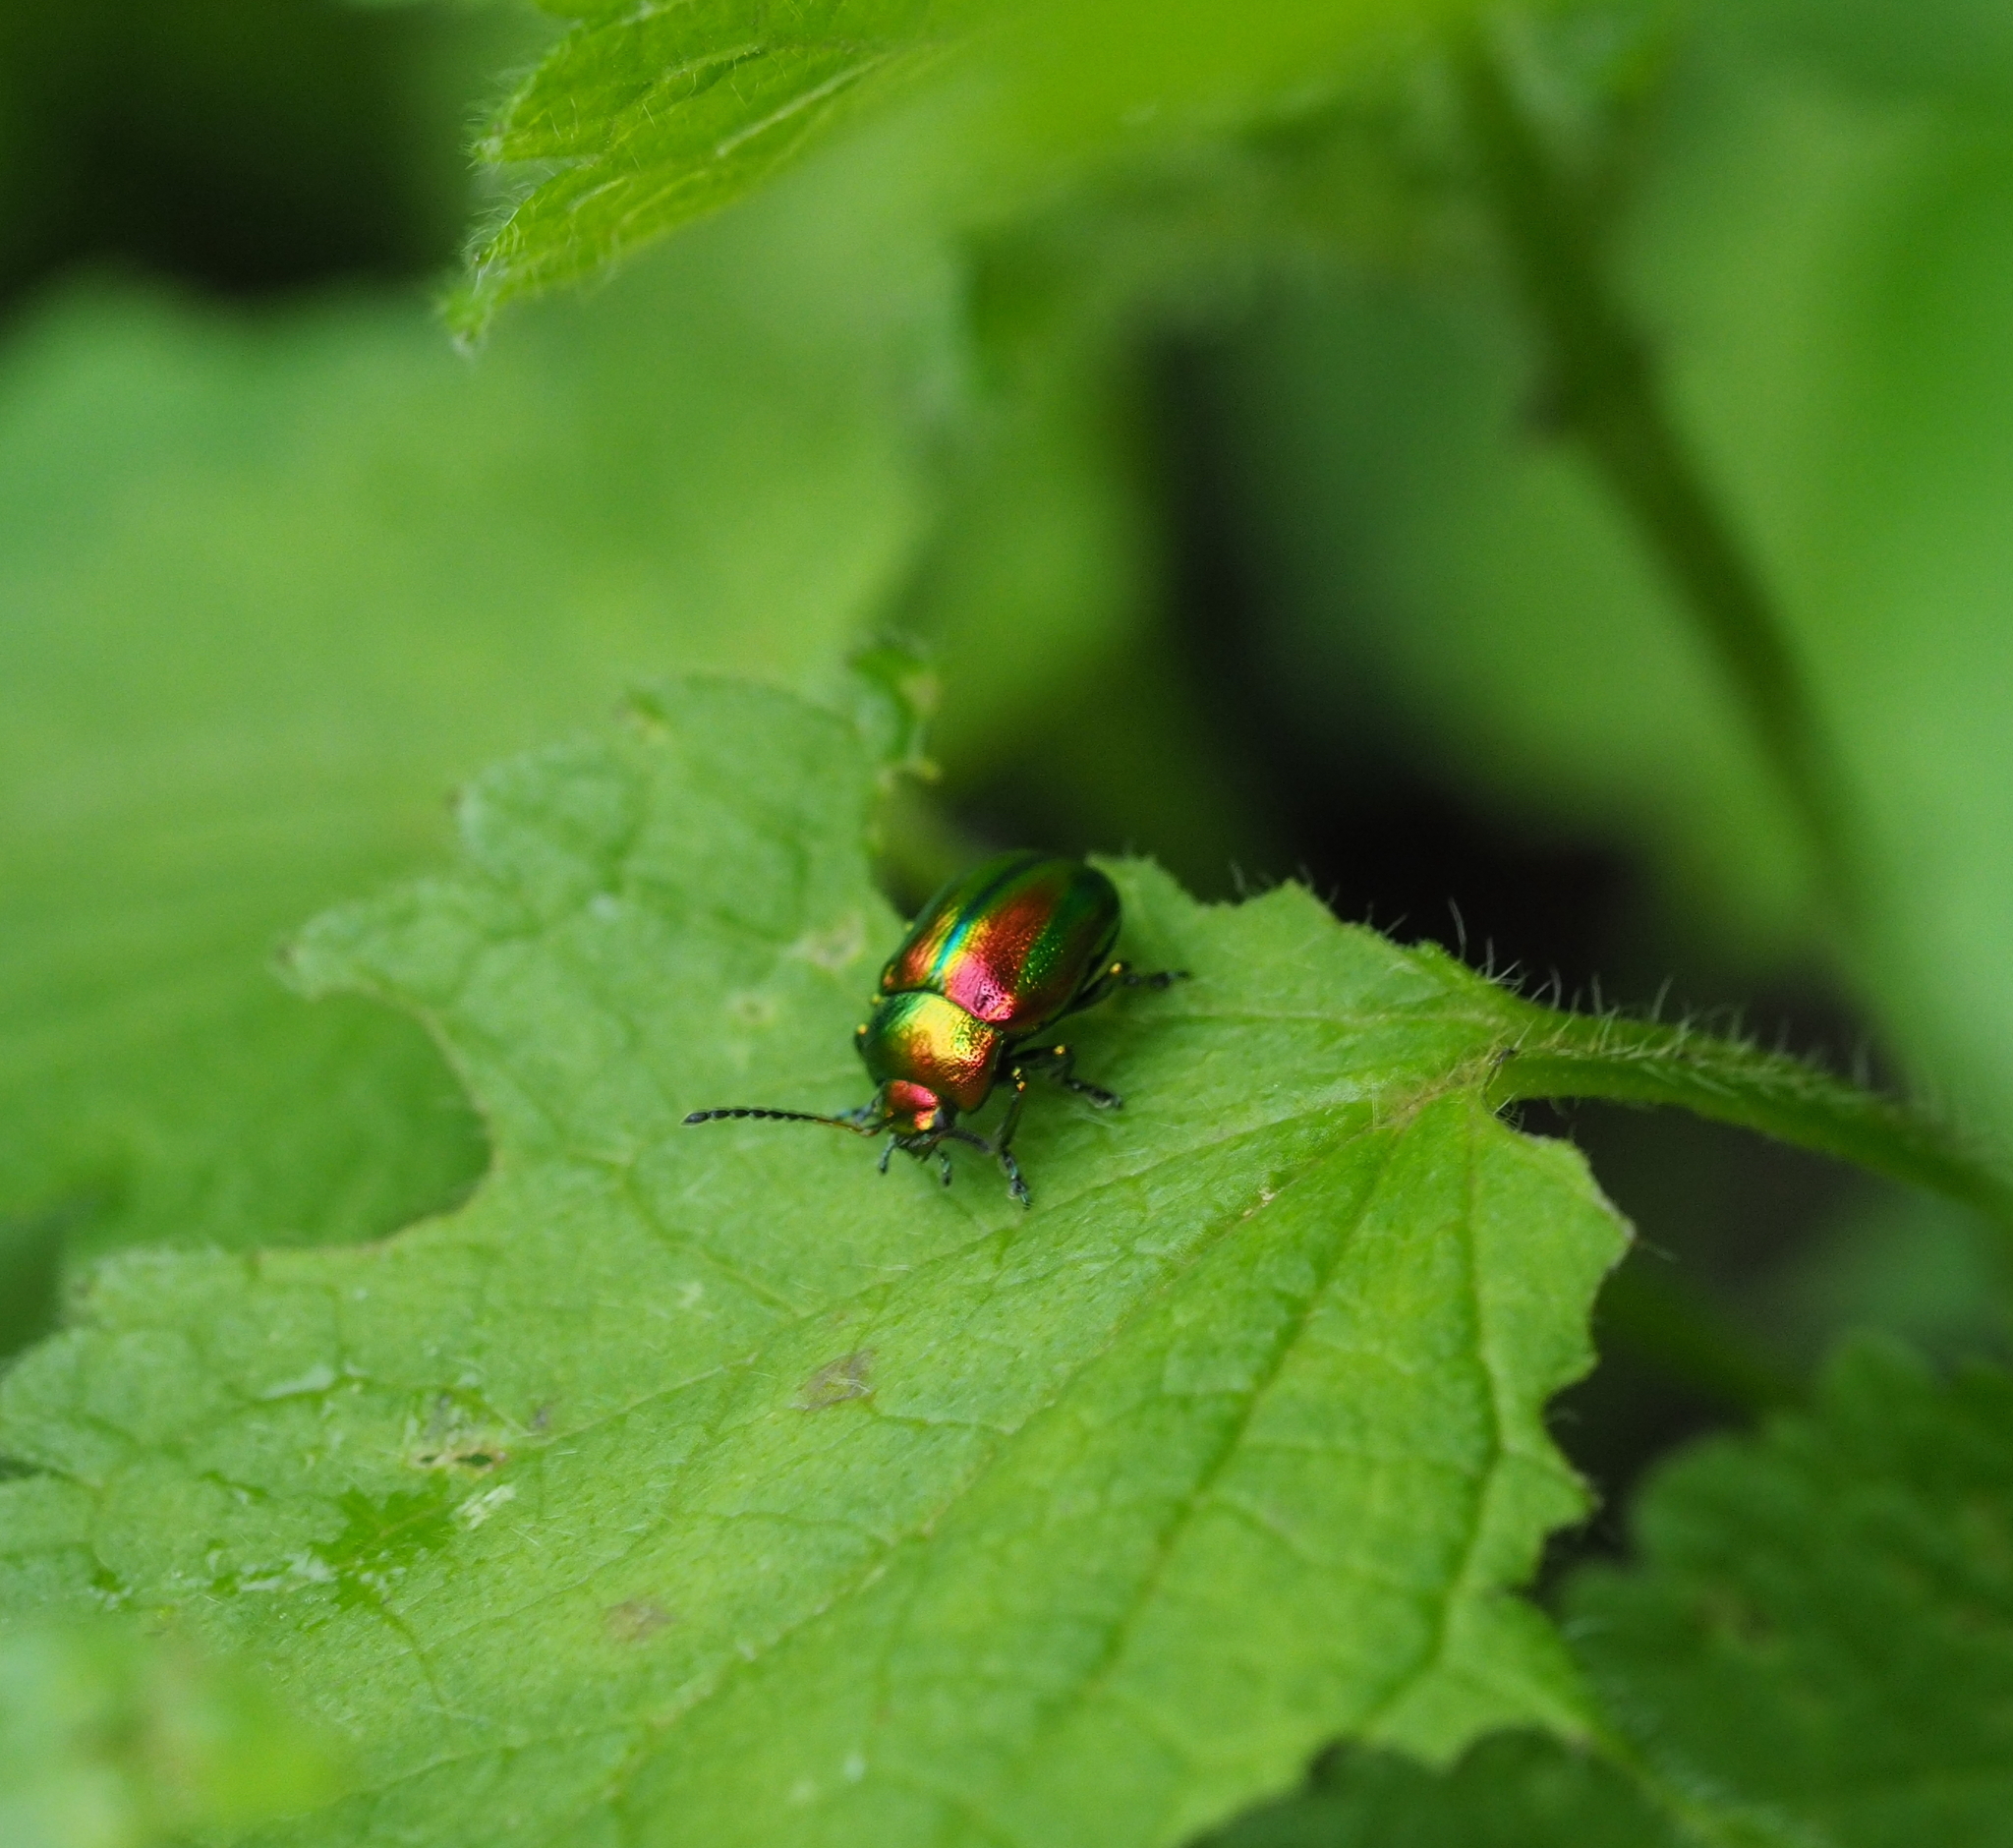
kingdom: Animalia
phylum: Arthropoda
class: Insecta
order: Coleoptera
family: Chrysomelidae
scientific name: Chrysomelidae
